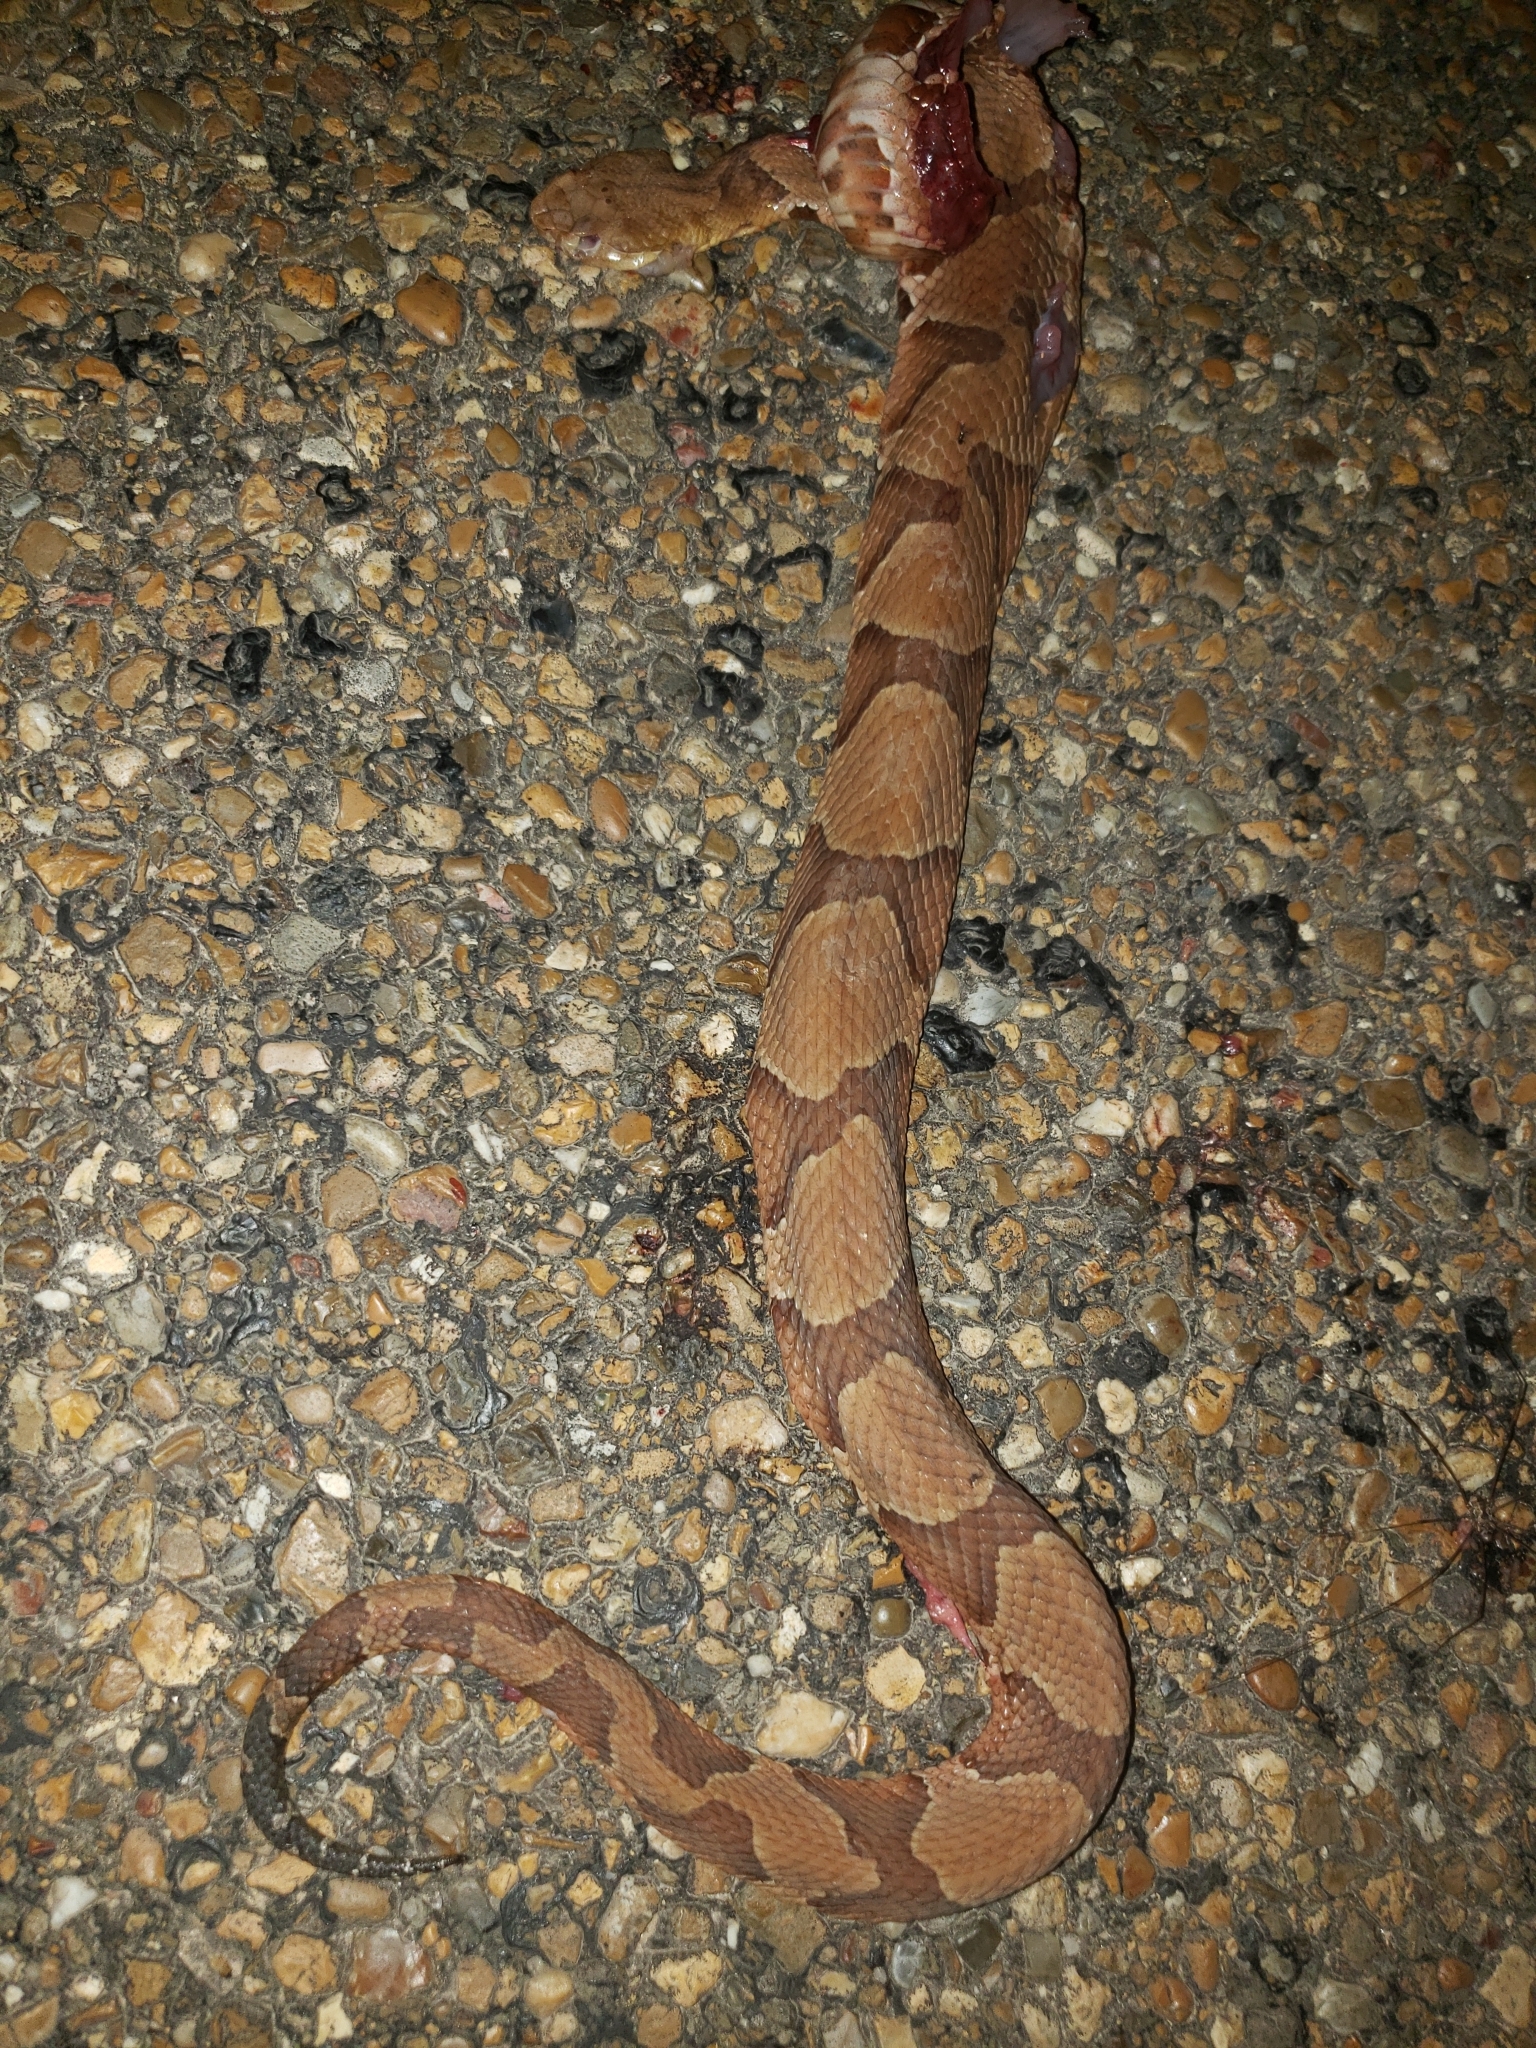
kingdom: Animalia
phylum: Chordata
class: Squamata
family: Viperidae
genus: Agkistrodon
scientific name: Agkistrodon contortrix
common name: Northern copperhead
